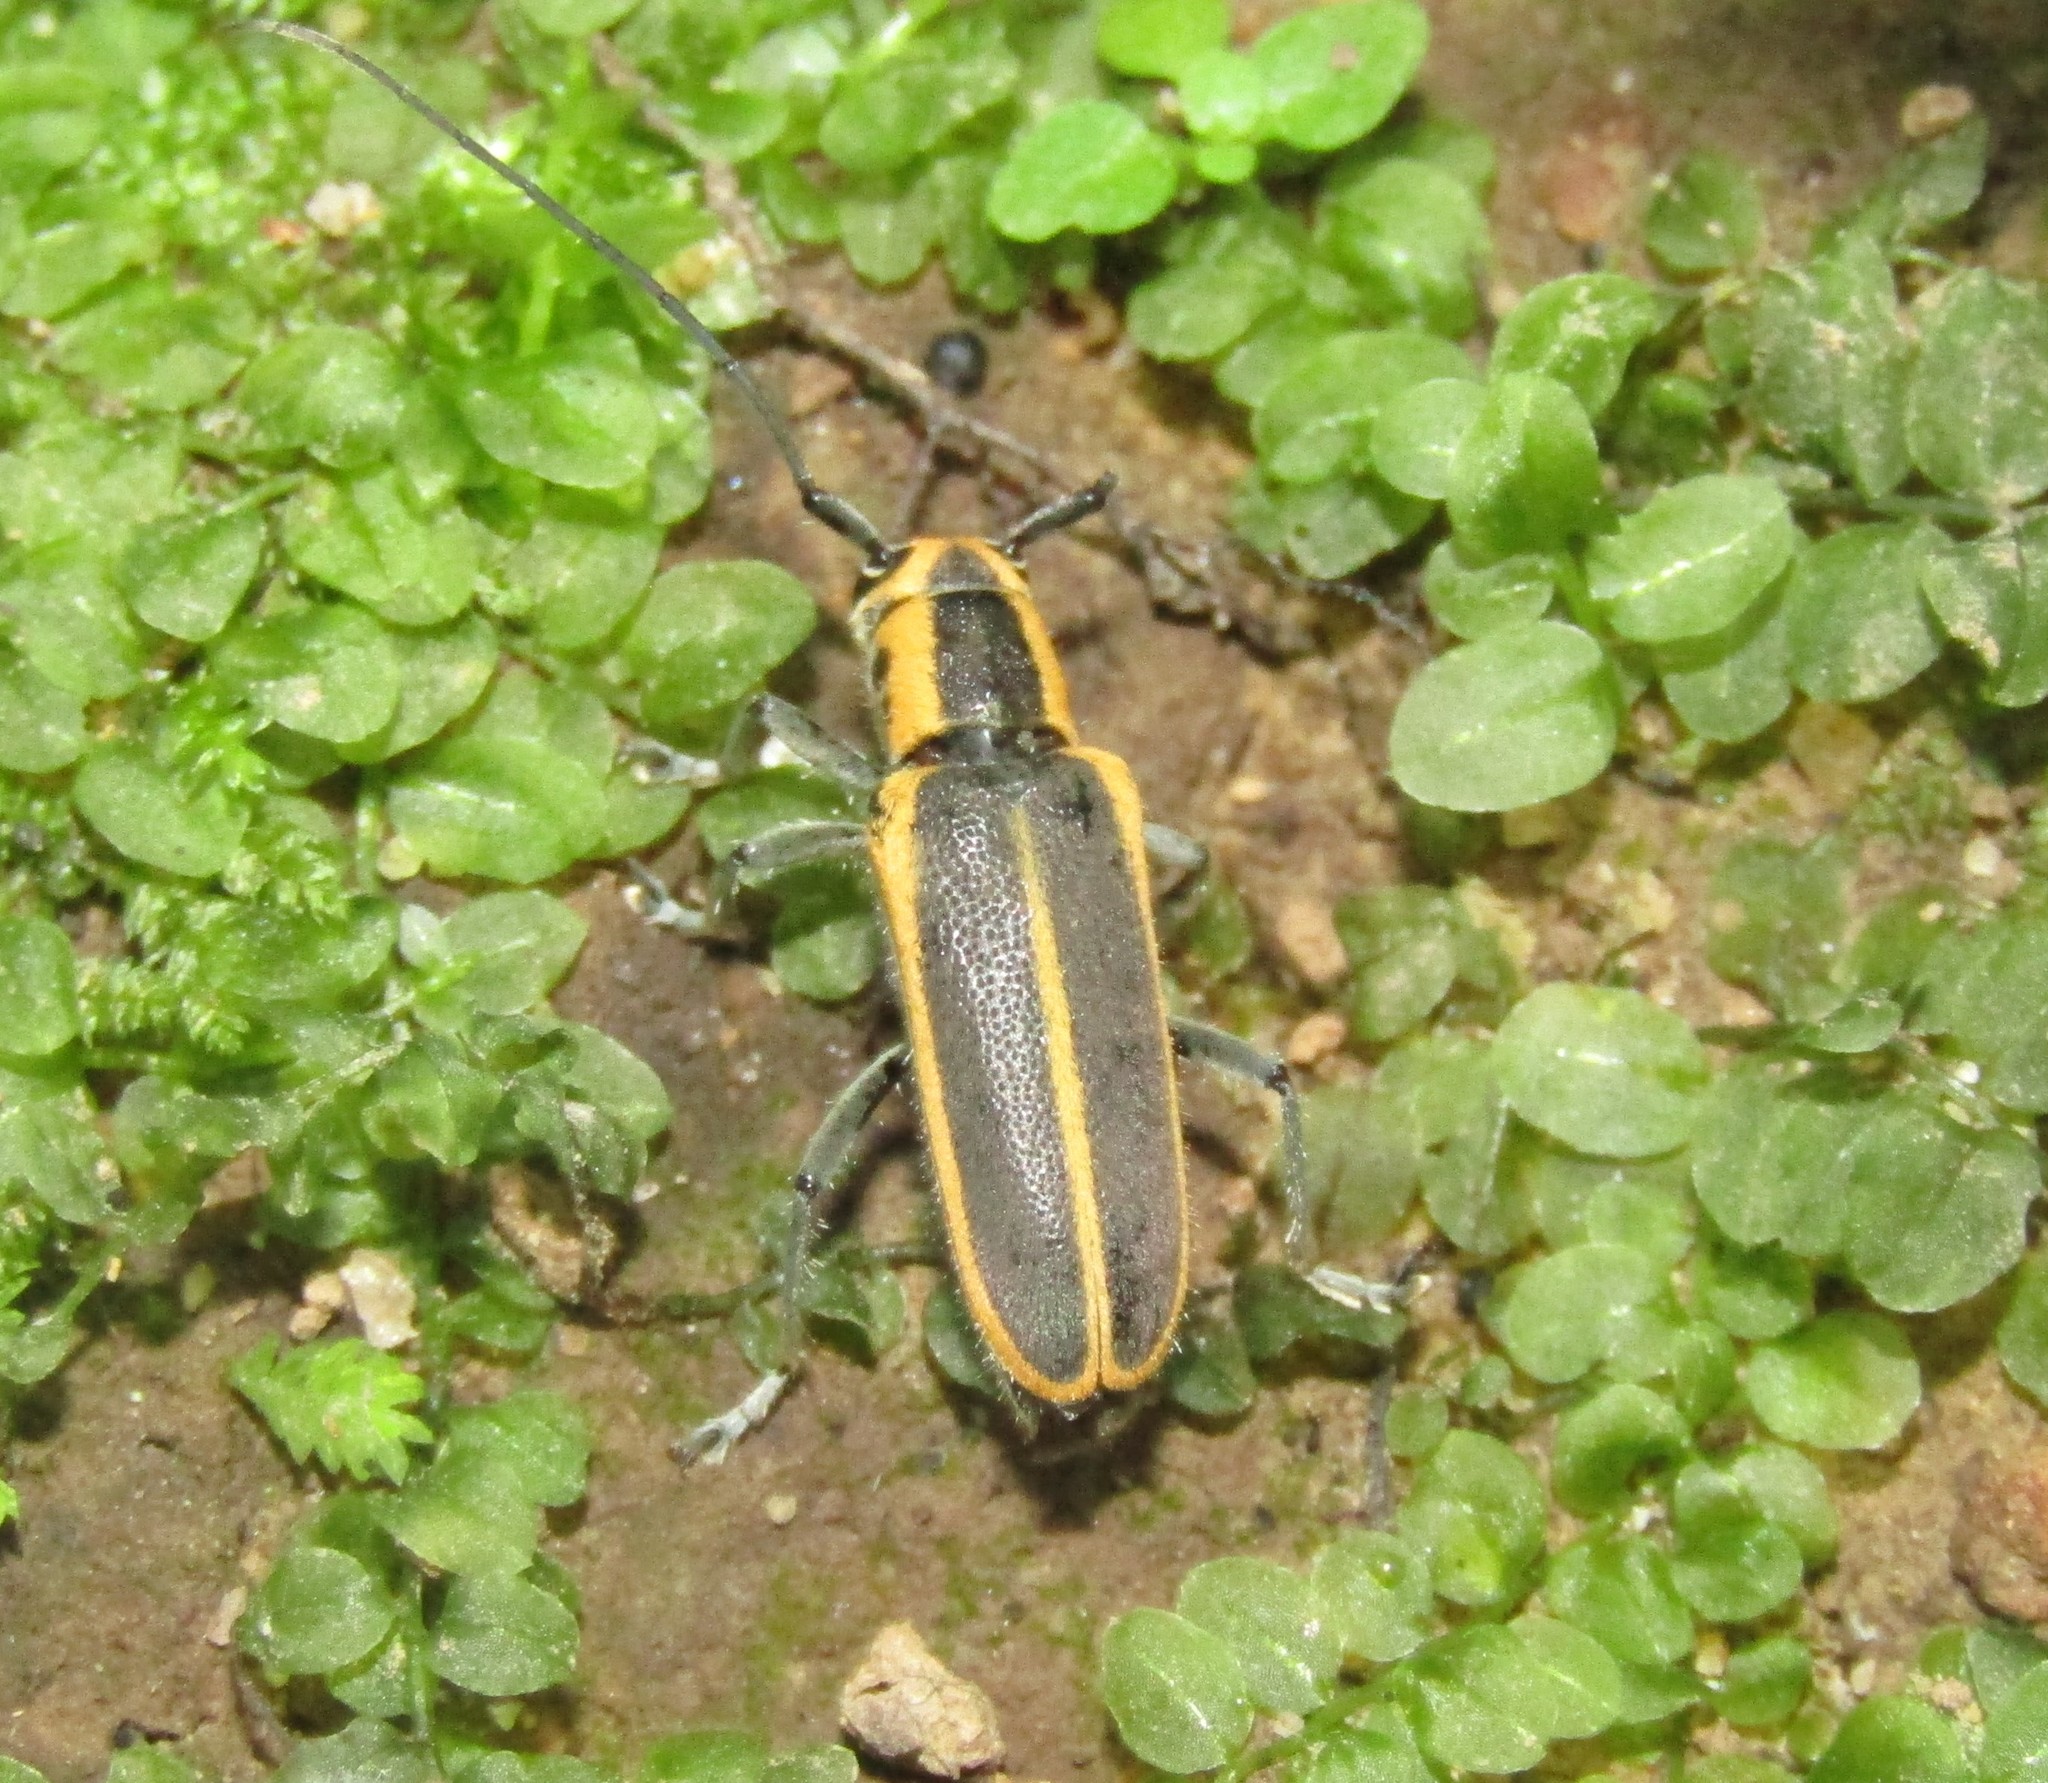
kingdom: Animalia
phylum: Arthropoda
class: Insecta
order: Coleoptera
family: Cerambycidae
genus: Saperda
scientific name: Saperda lateralis
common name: Red-edged saperda
